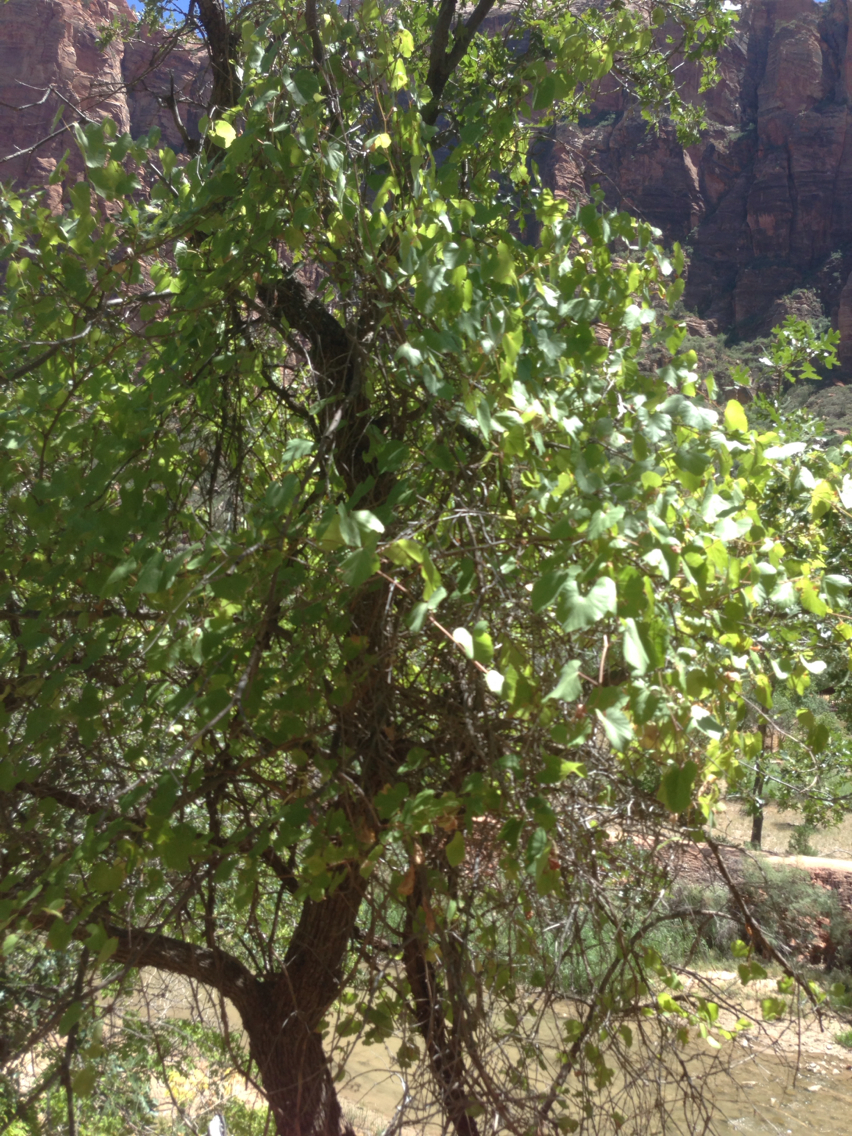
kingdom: Plantae
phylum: Tracheophyta
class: Magnoliopsida
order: Vitales
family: Vitaceae
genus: Vitis
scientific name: Vitis arizonica
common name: Canyon grape
